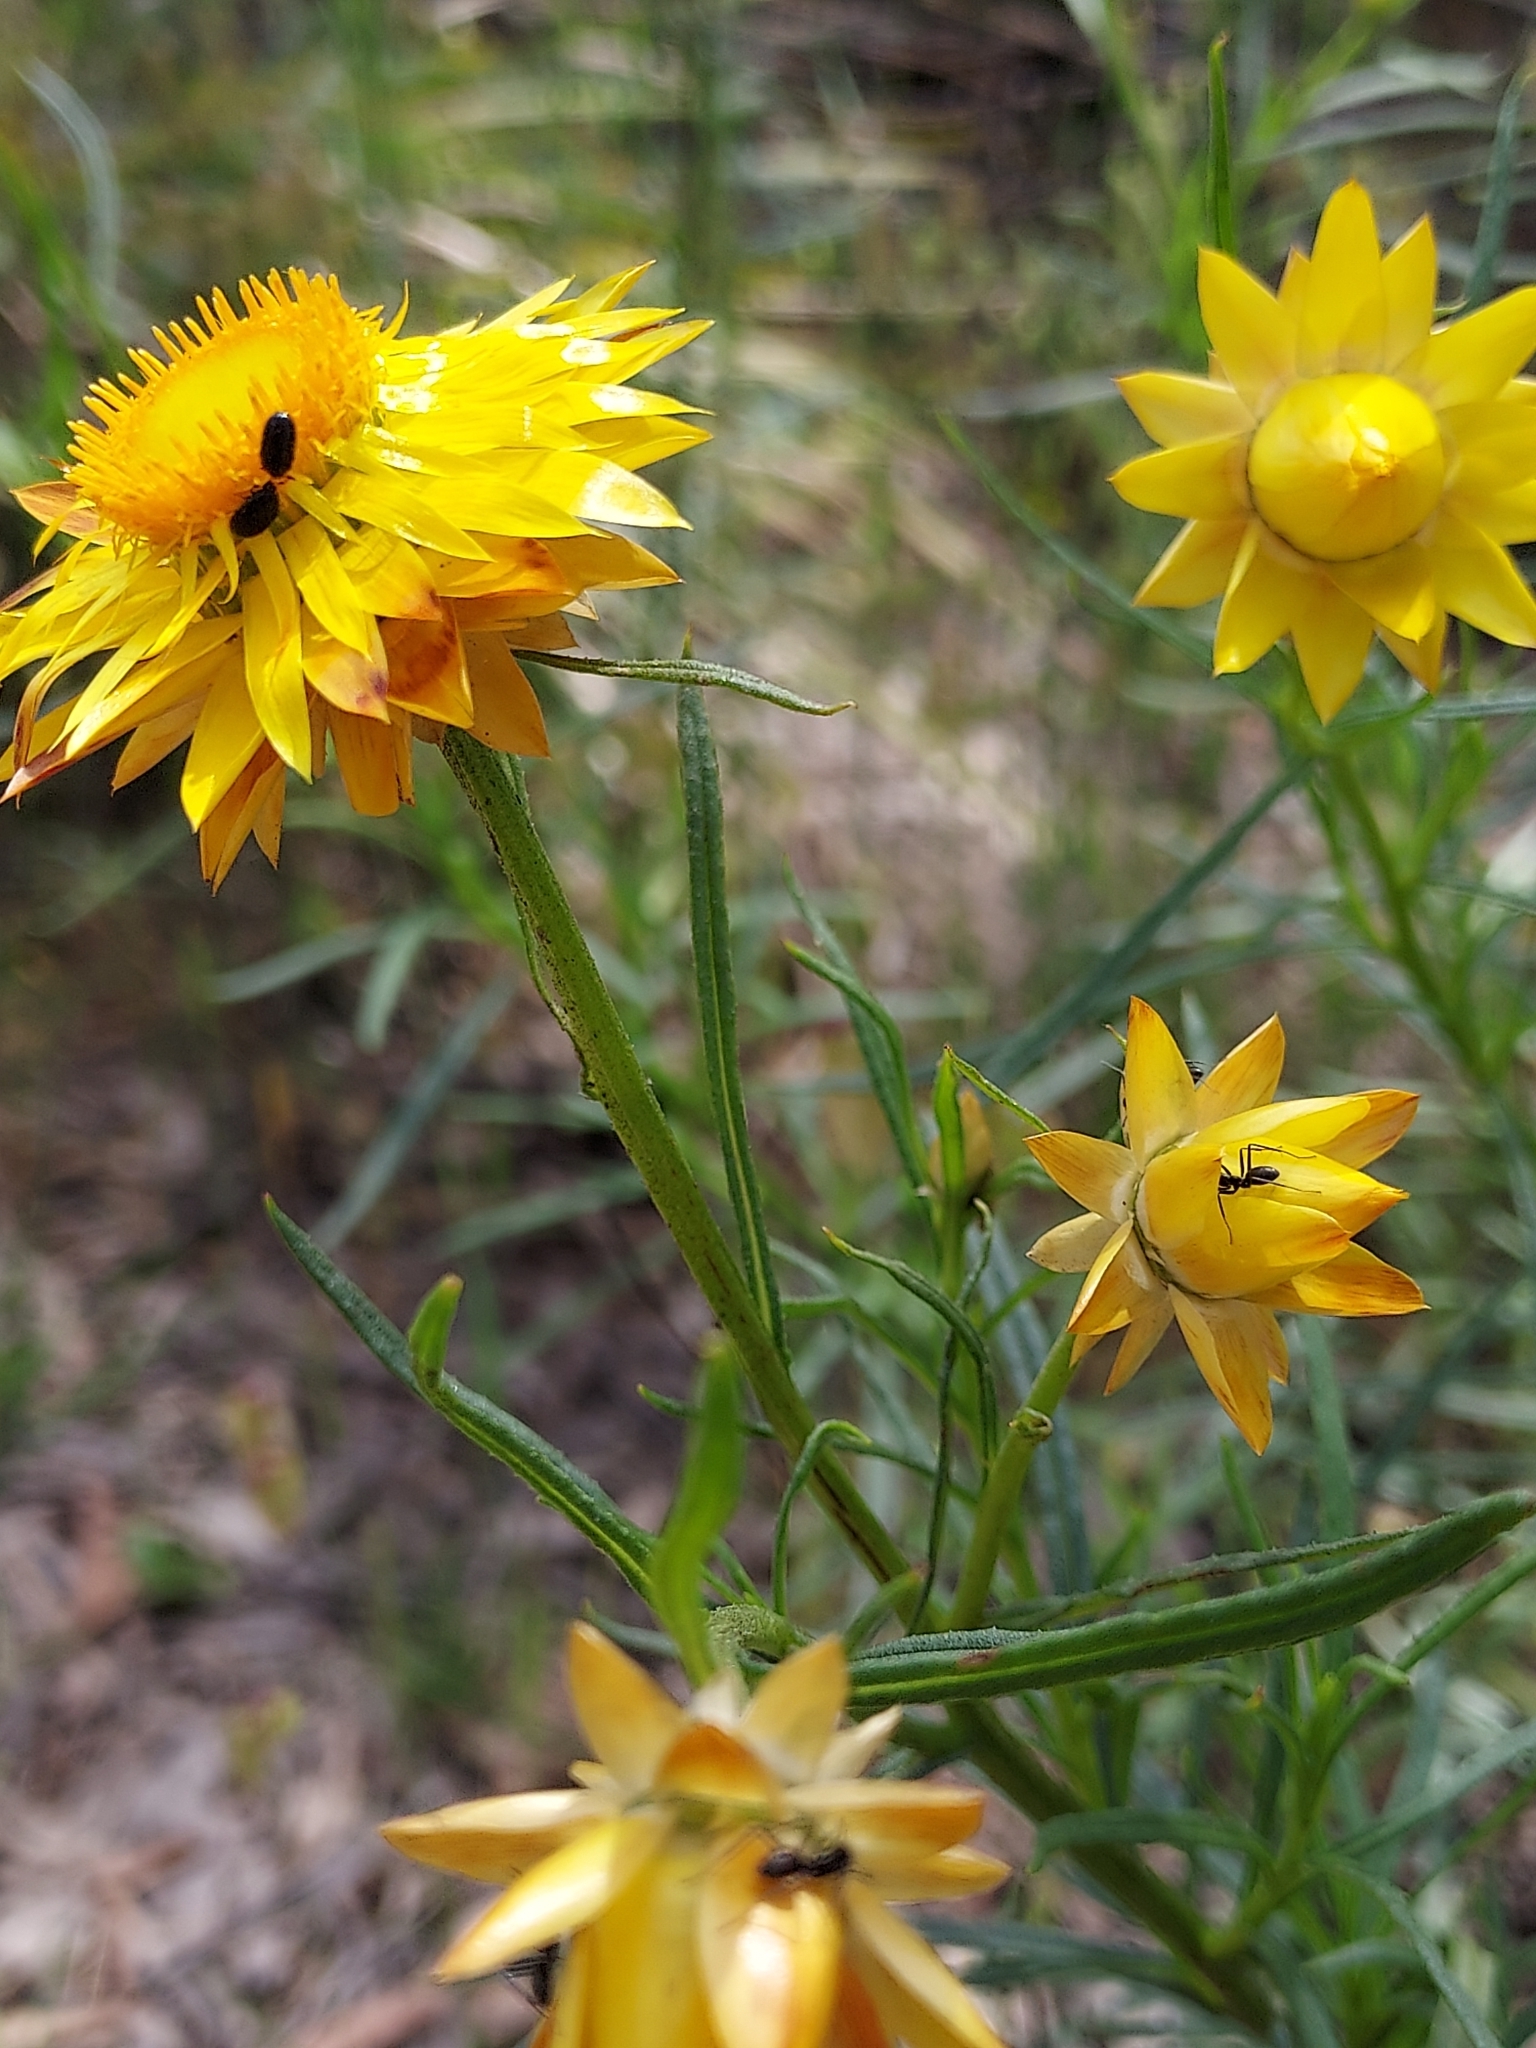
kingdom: Plantae
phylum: Tracheophyta
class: Magnoliopsida
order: Asterales
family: Asteraceae
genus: Xerochrysum
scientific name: Xerochrysum viscosum
